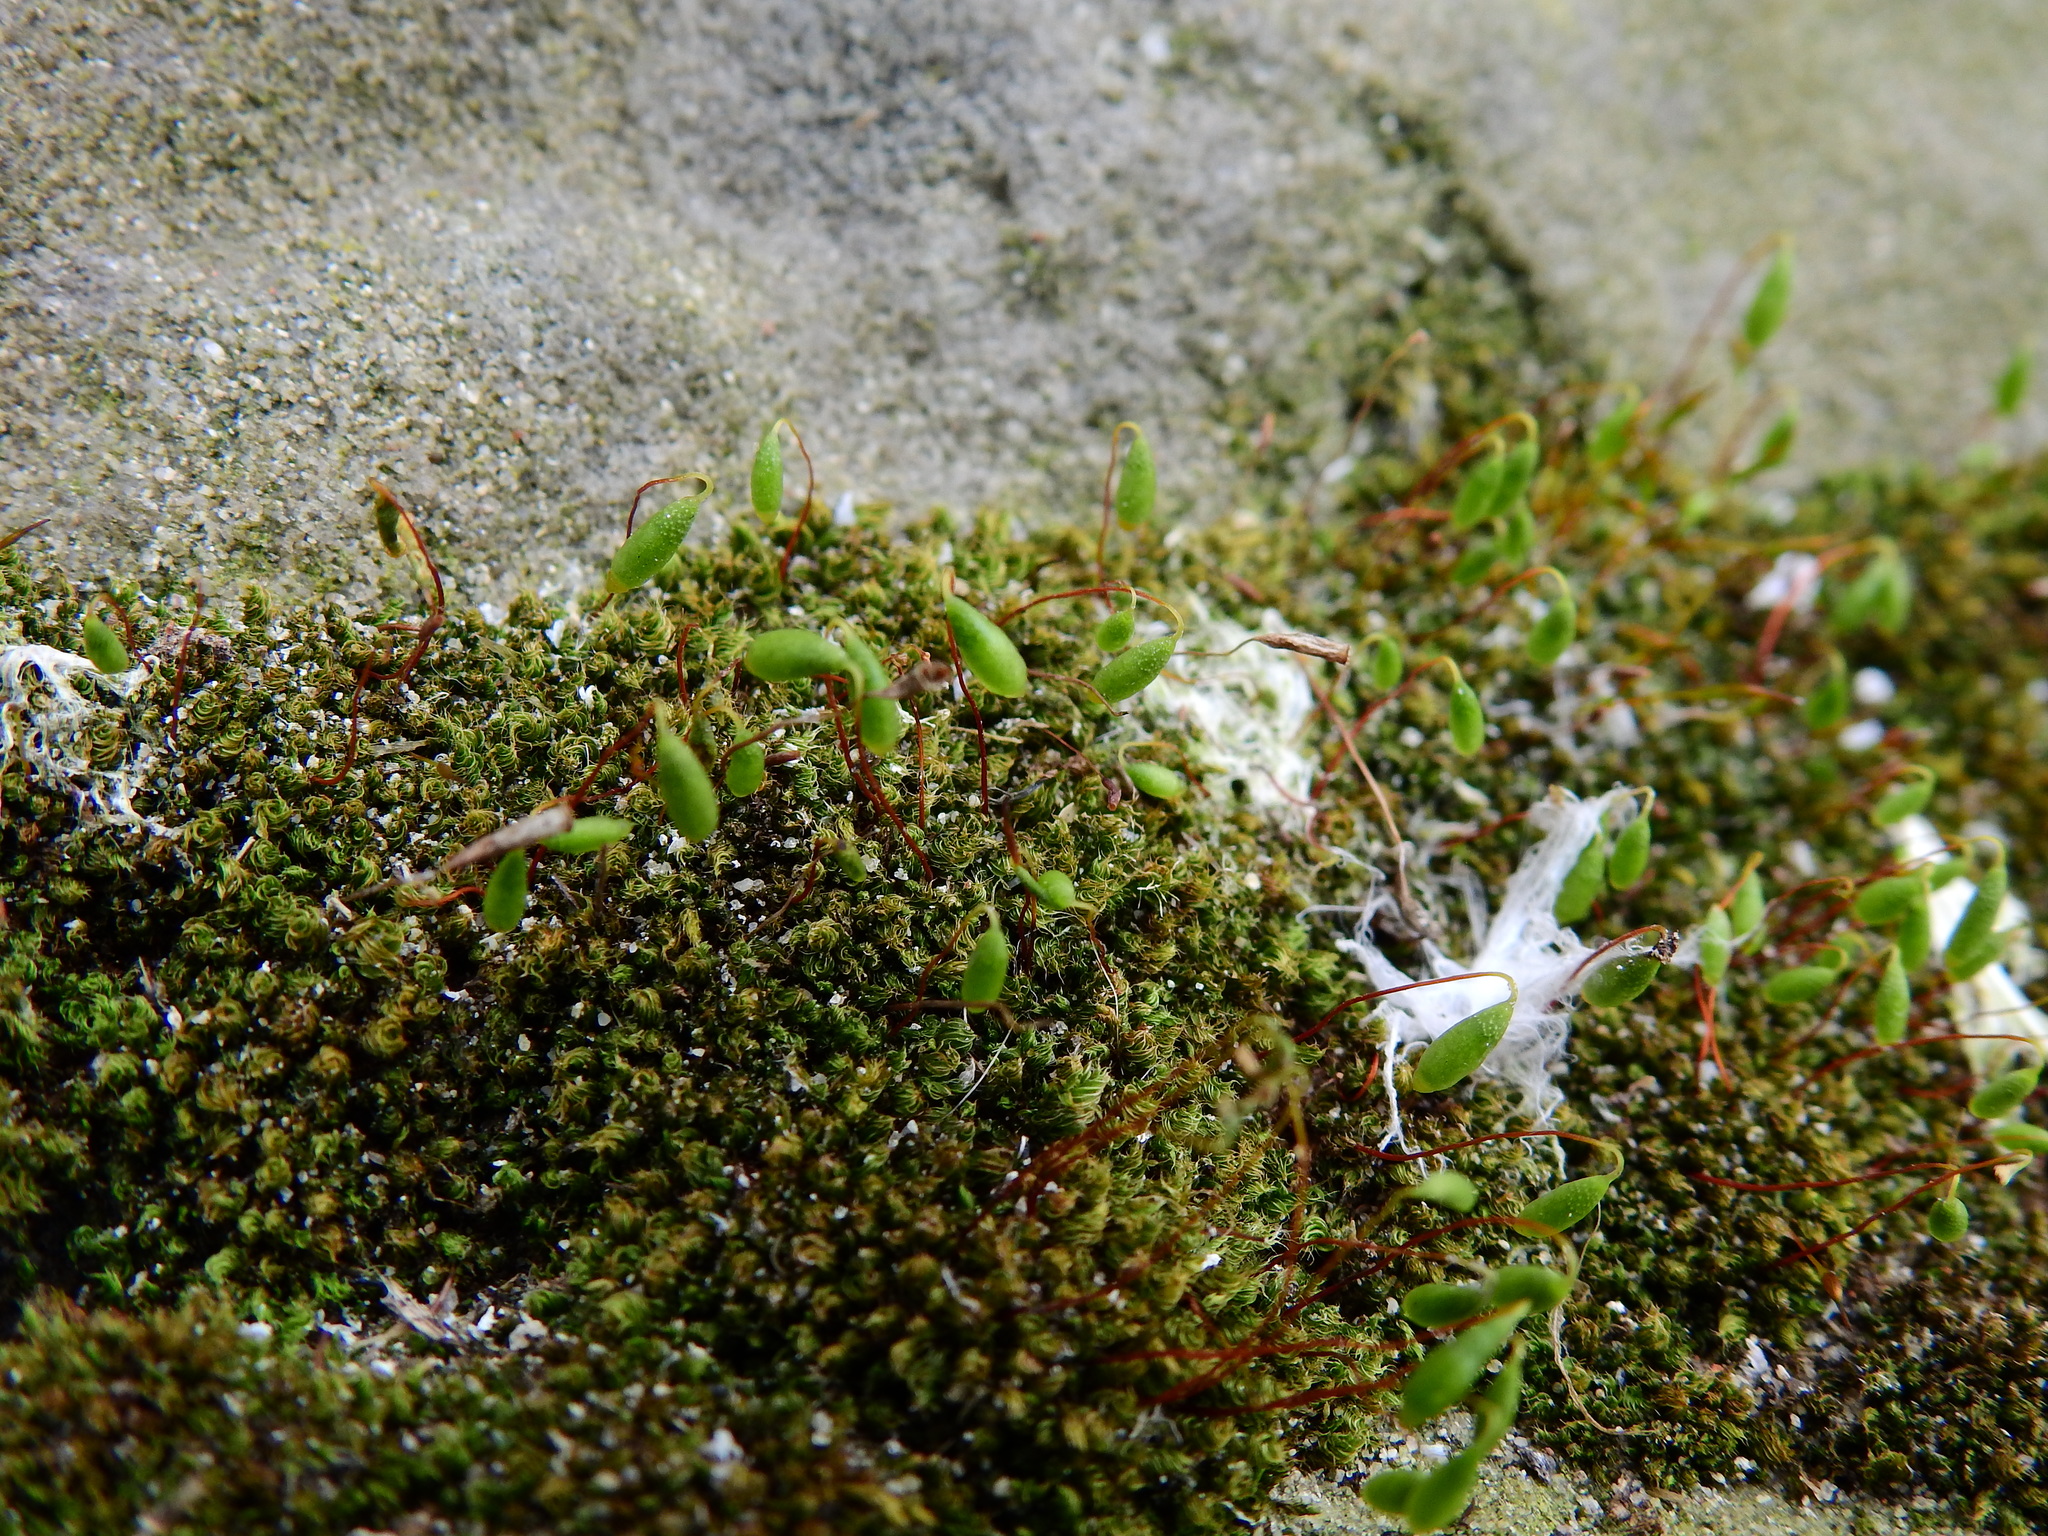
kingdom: Plantae
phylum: Bryophyta
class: Bryopsida
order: Bryales
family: Bryaceae
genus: Rosulabryum
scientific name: Rosulabryum capillare
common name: Capillary thread-moss
